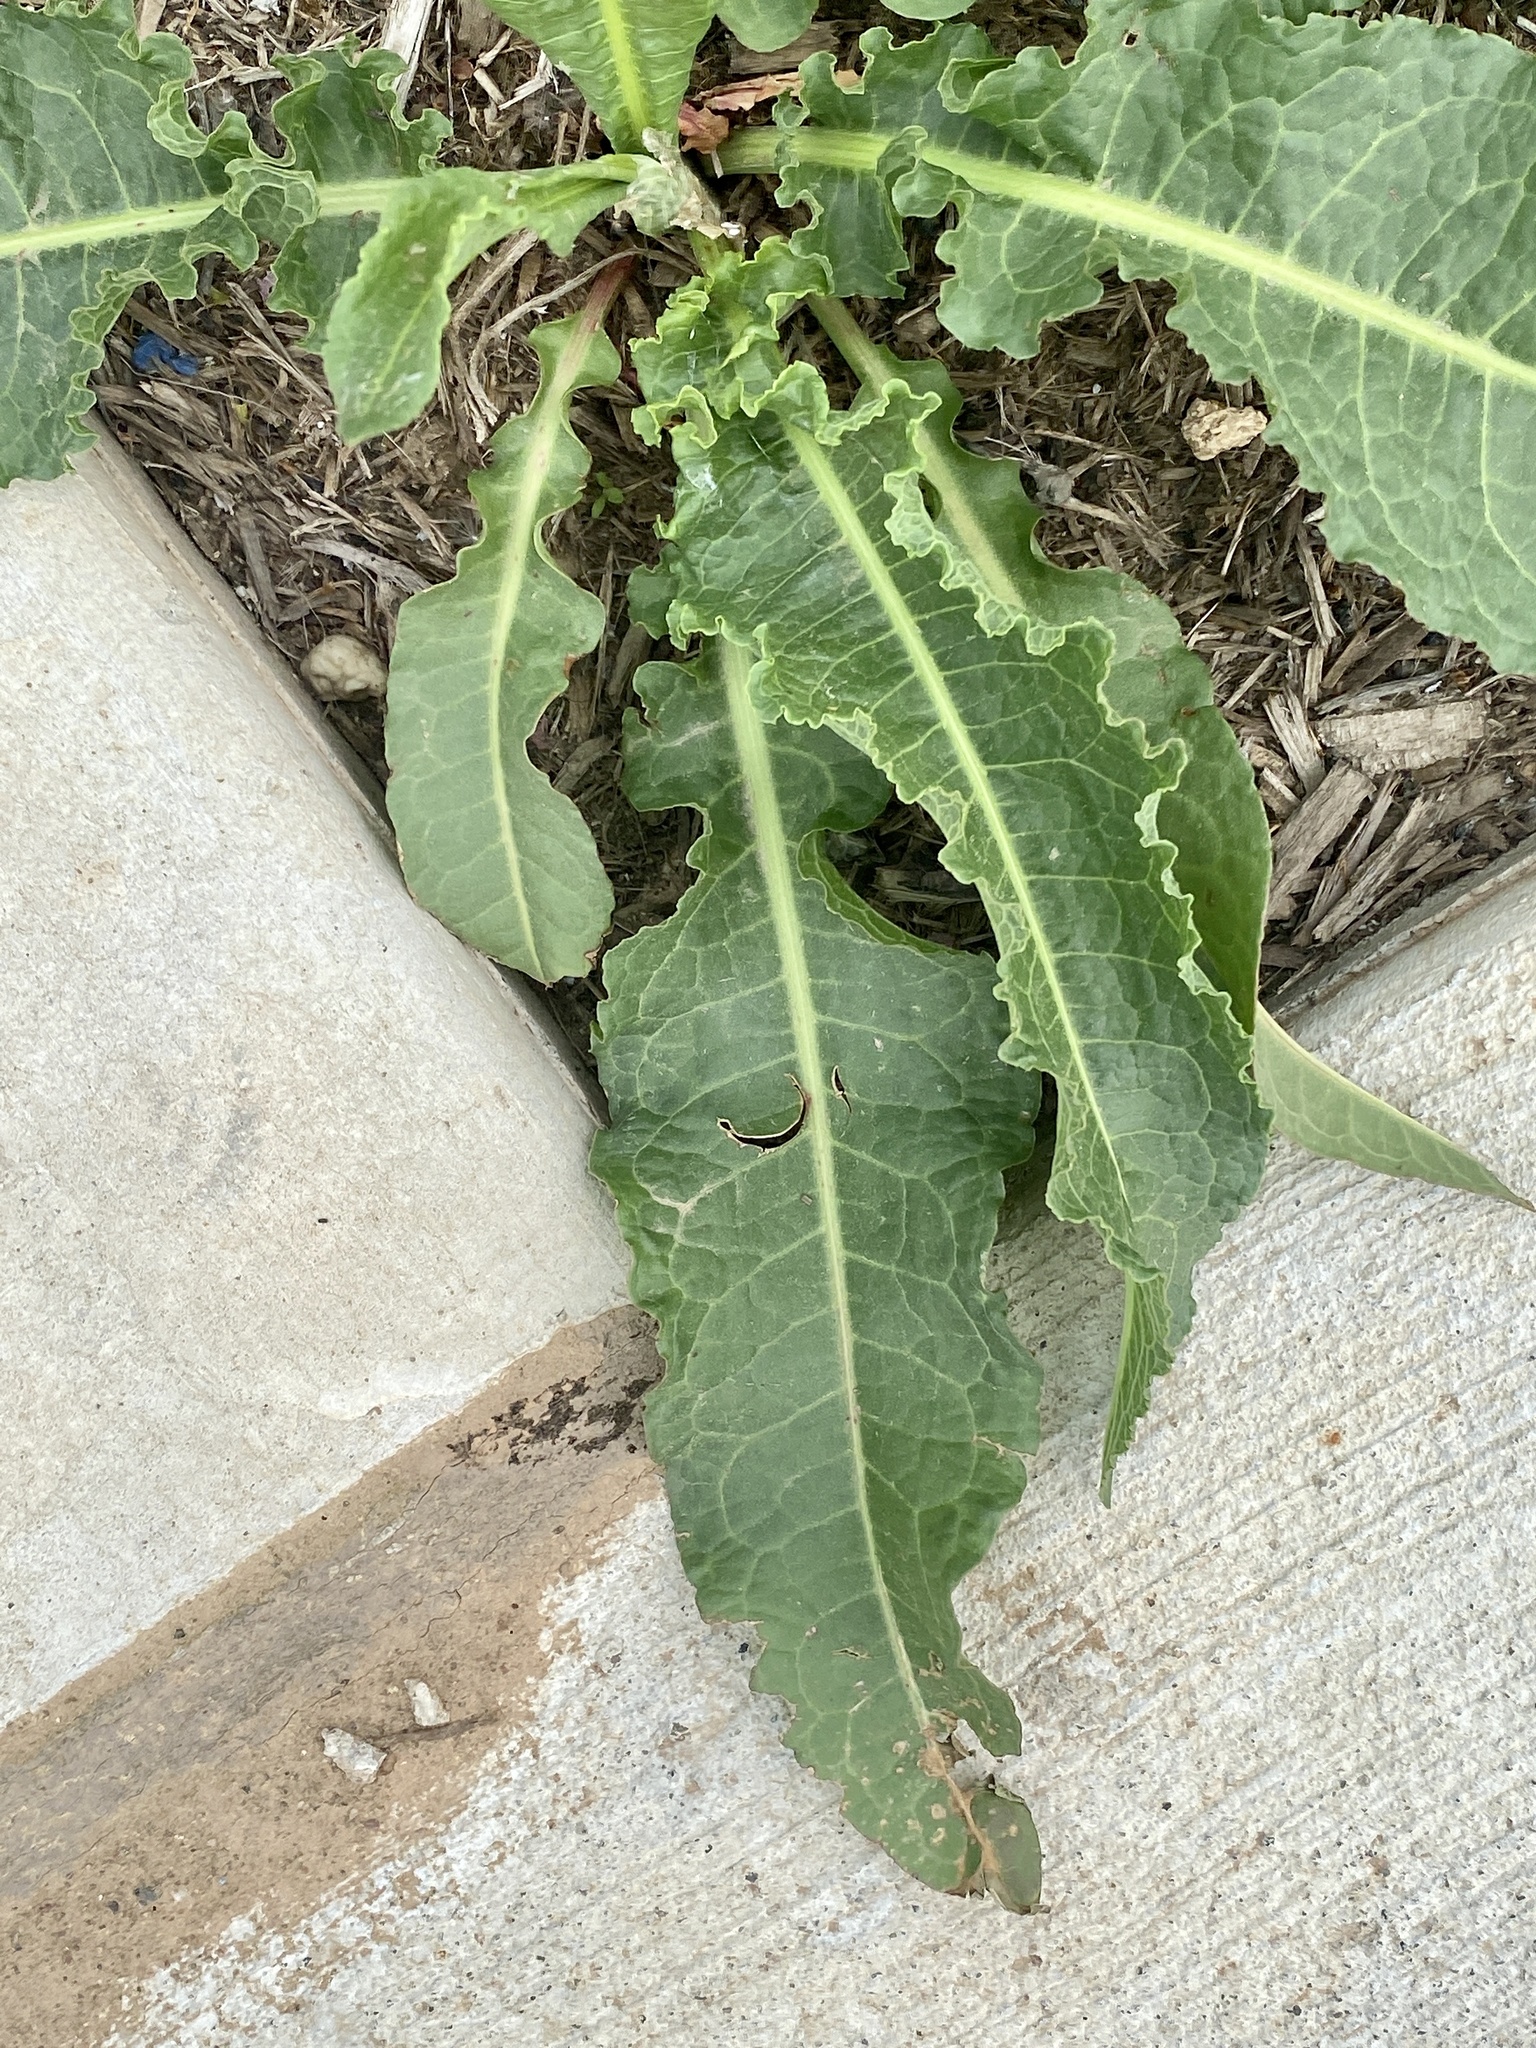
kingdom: Plantae
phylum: Tracheophyta
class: Magnoliopsida
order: Caryophyllales
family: Polygonaceae
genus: Rumex
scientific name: Rumex crispus
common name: Curled dock
